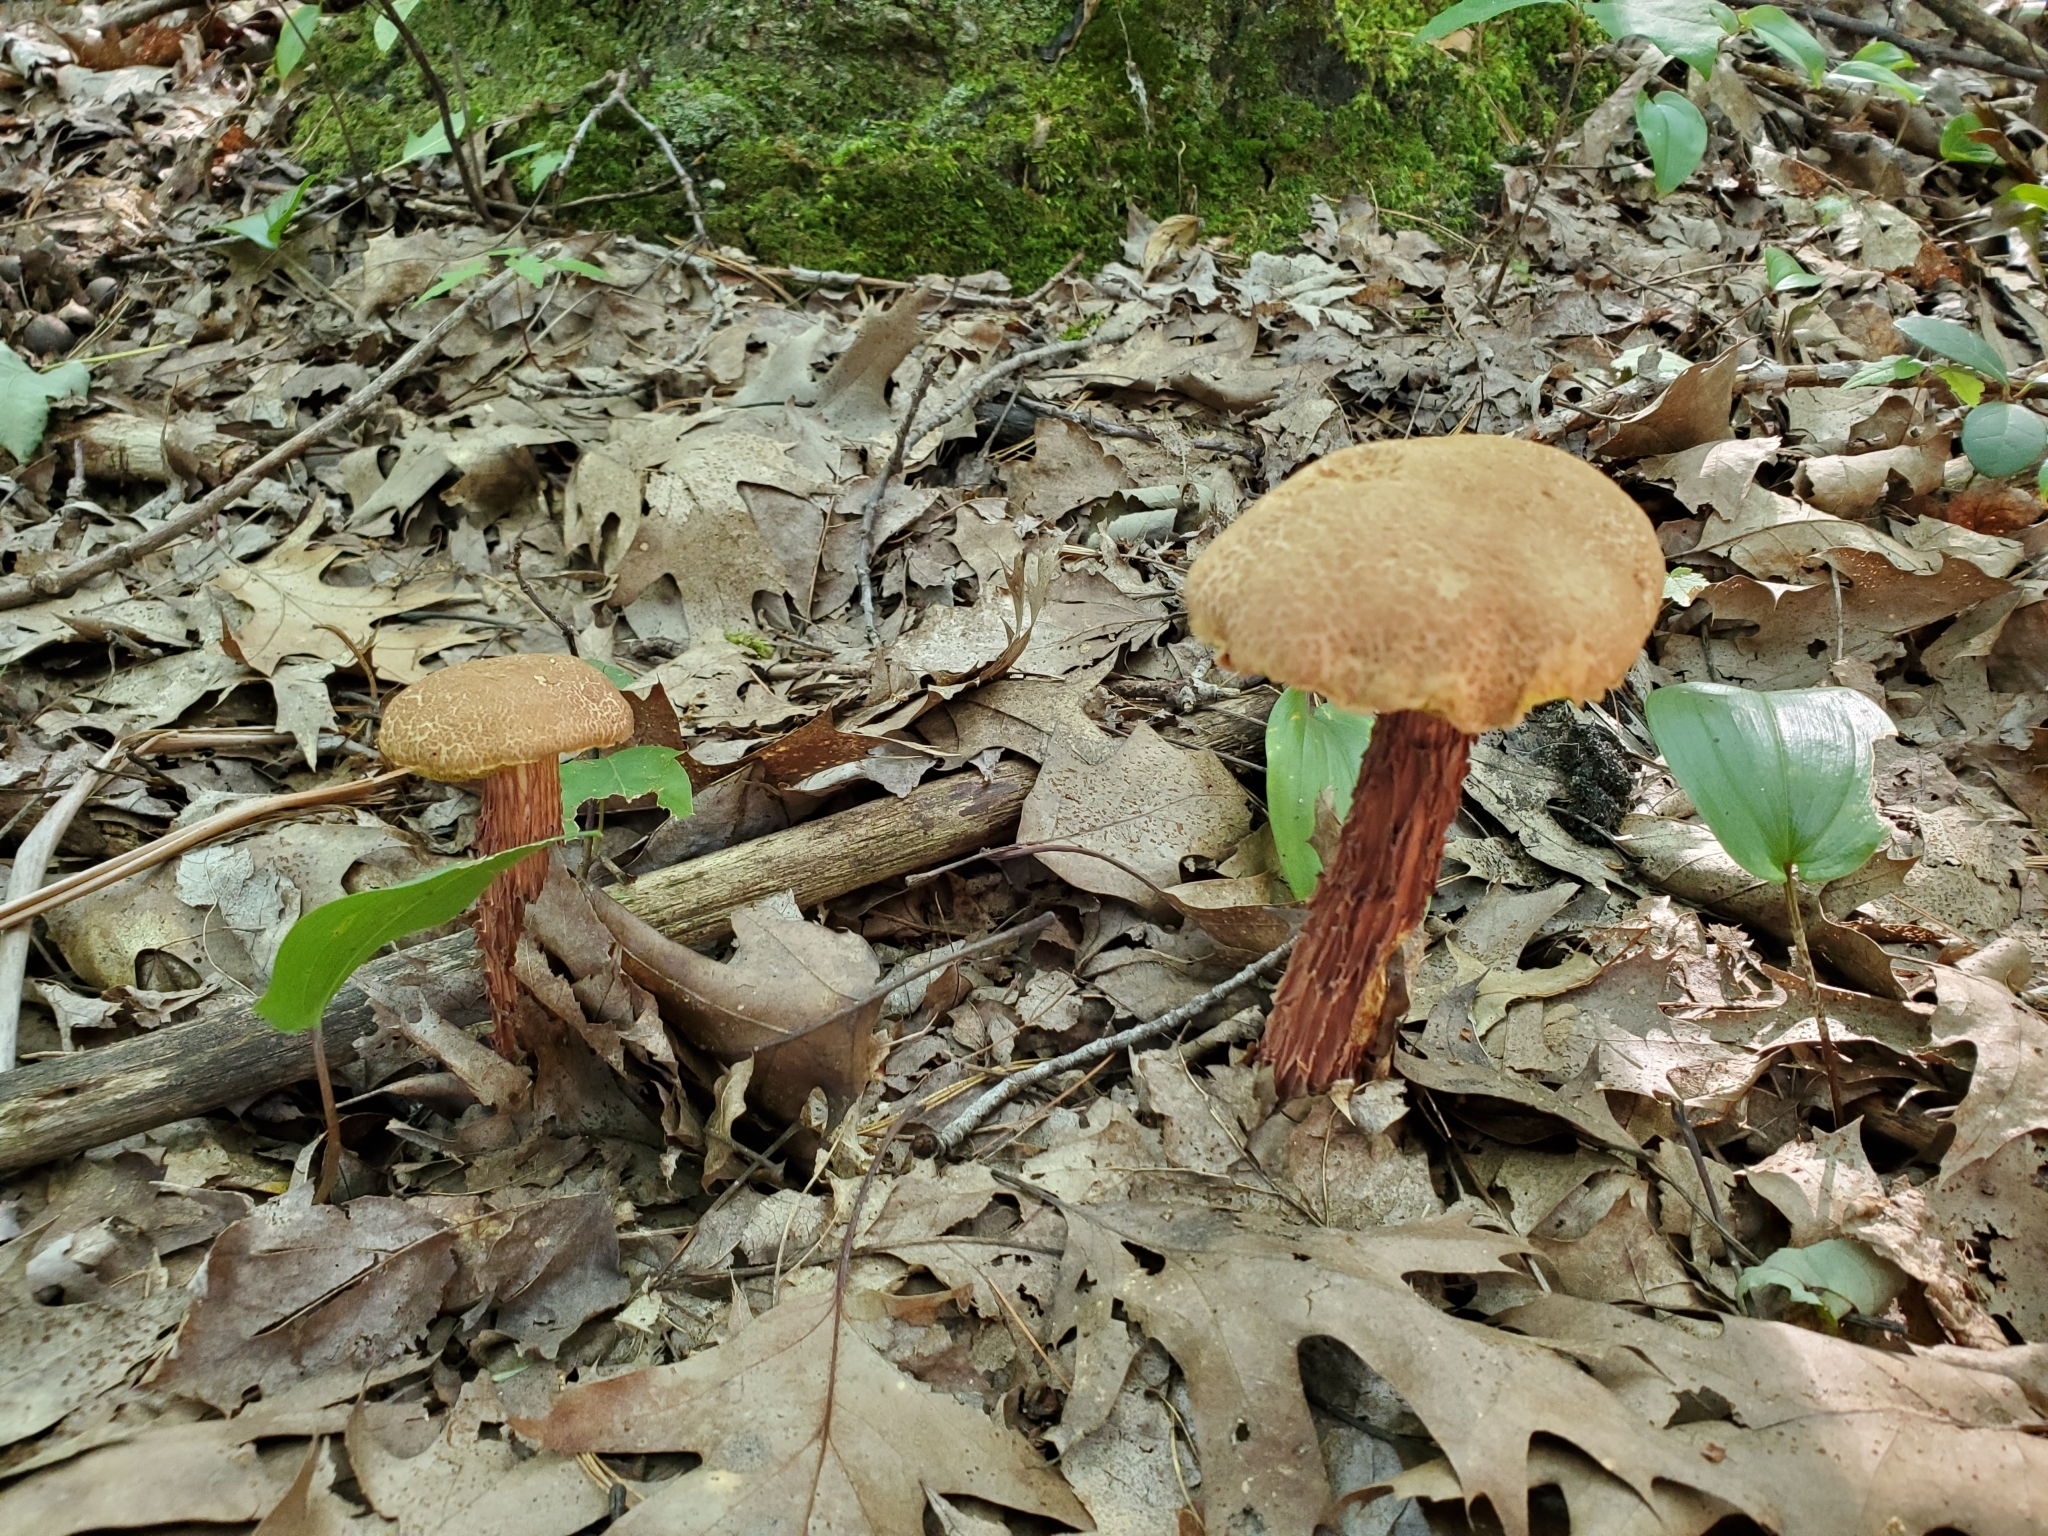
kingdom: Fungi
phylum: Basidiomycota
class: Agaricomycetes
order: Boletales
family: Boletaceae
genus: Aureoboletus
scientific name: Aureoboletus russellii
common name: Russell's bolete
